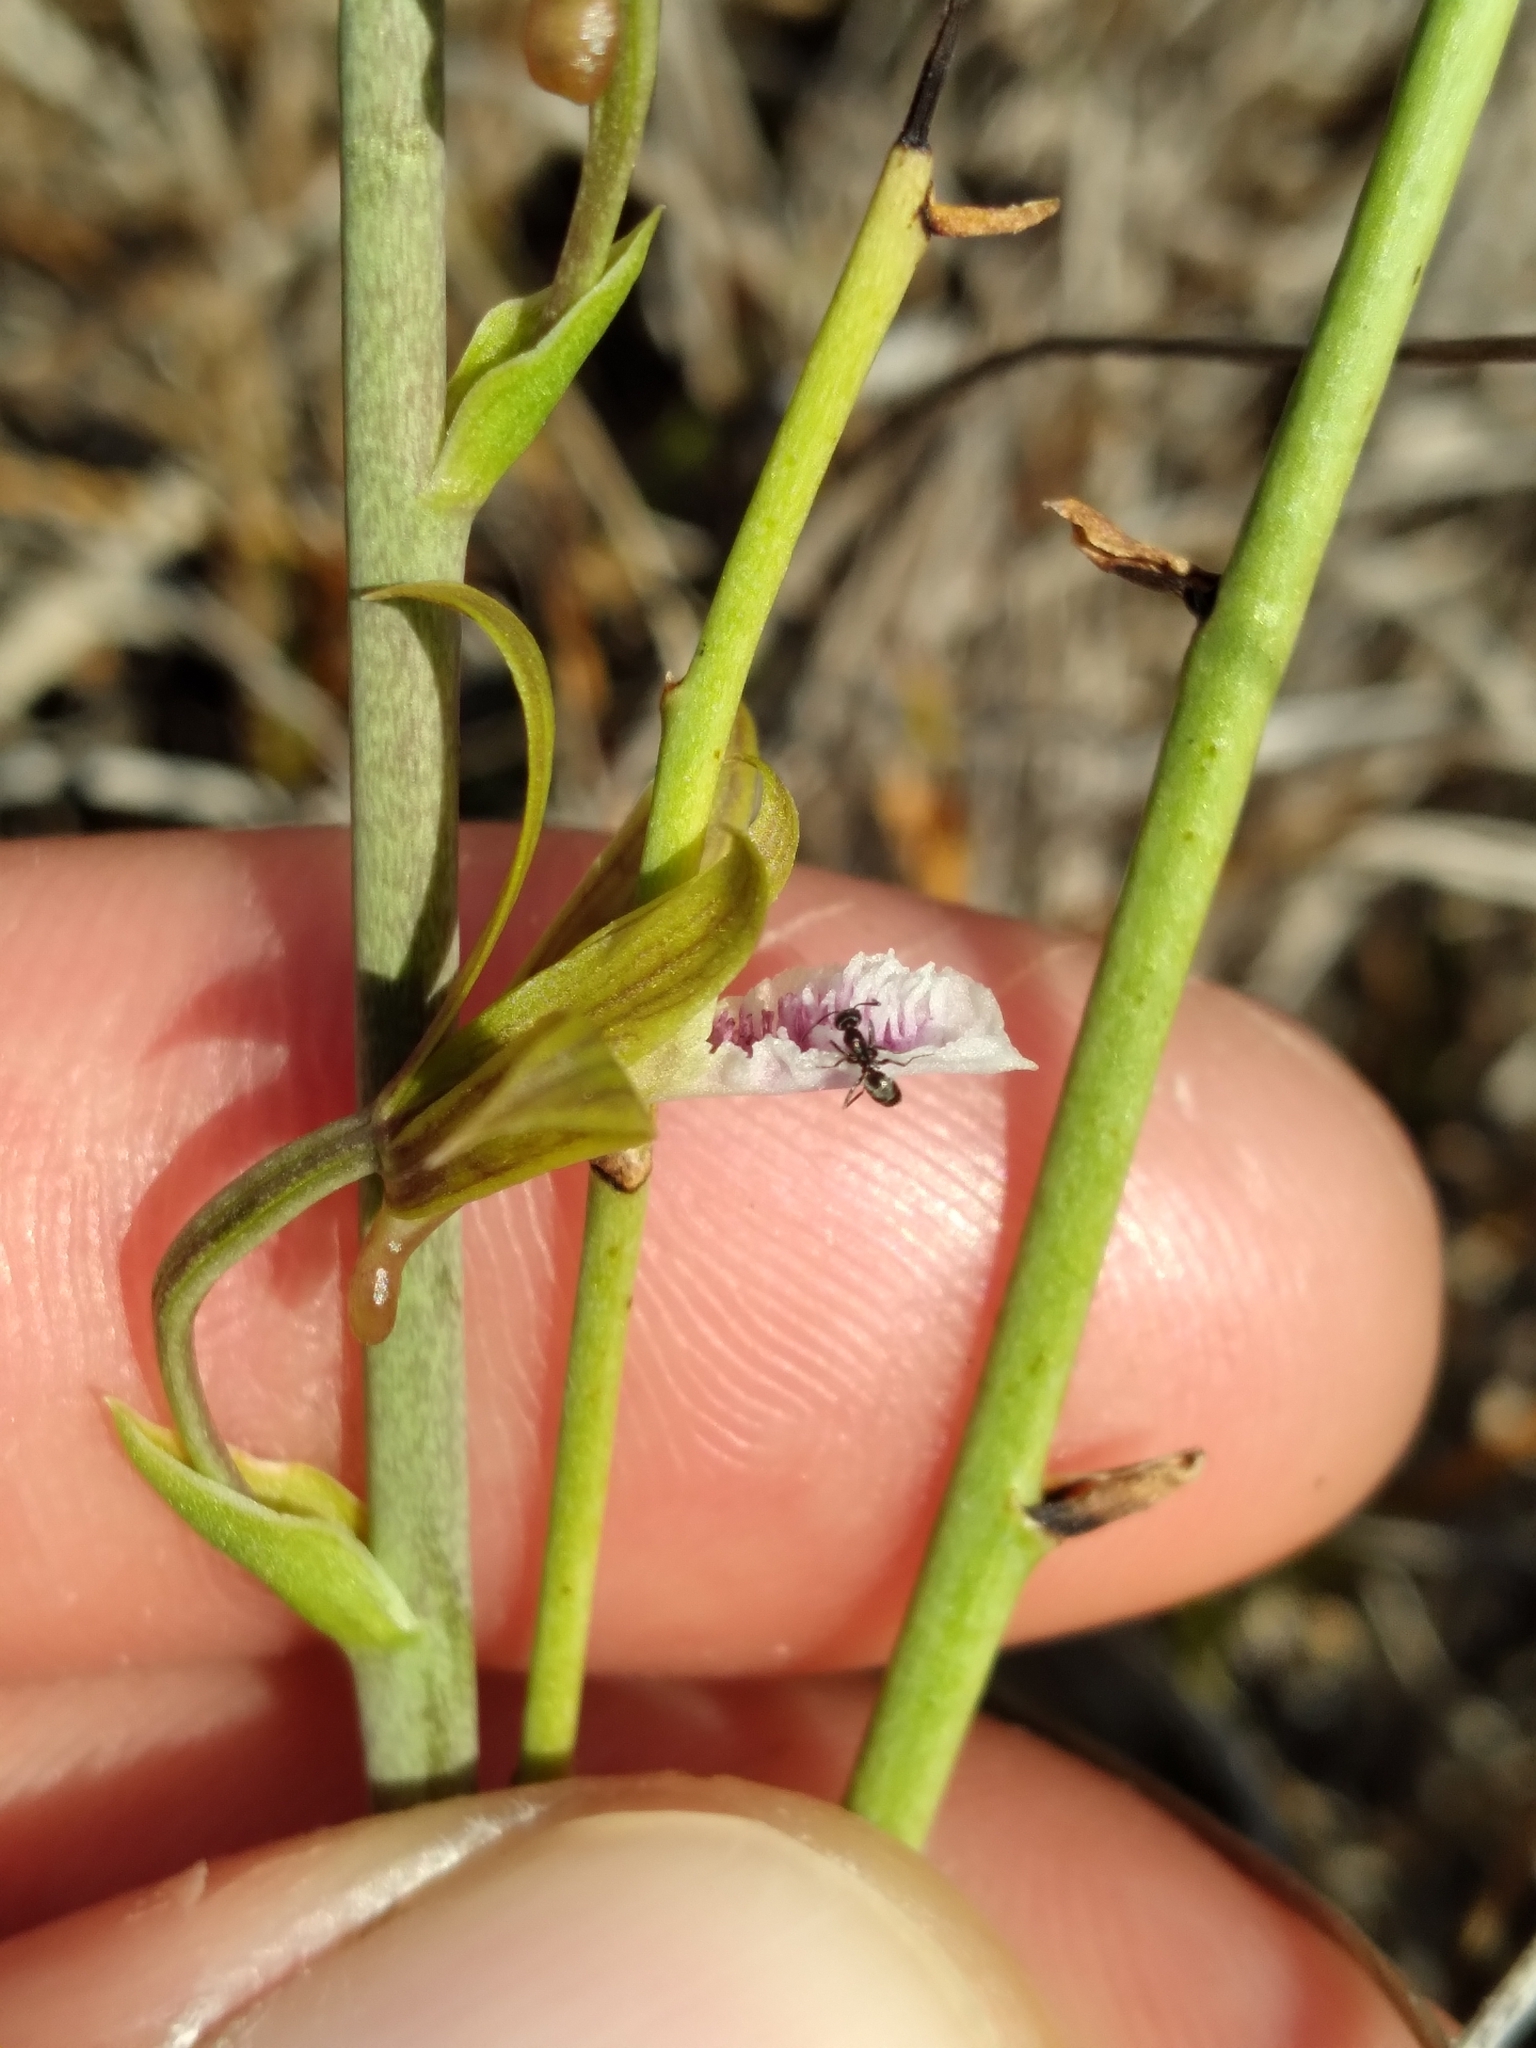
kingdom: Plantae
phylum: Tracheophyta
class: Liliopsida
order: Asparagales
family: Orchidaceae
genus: Eulophia
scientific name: Eulophia graminea
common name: Orchid
